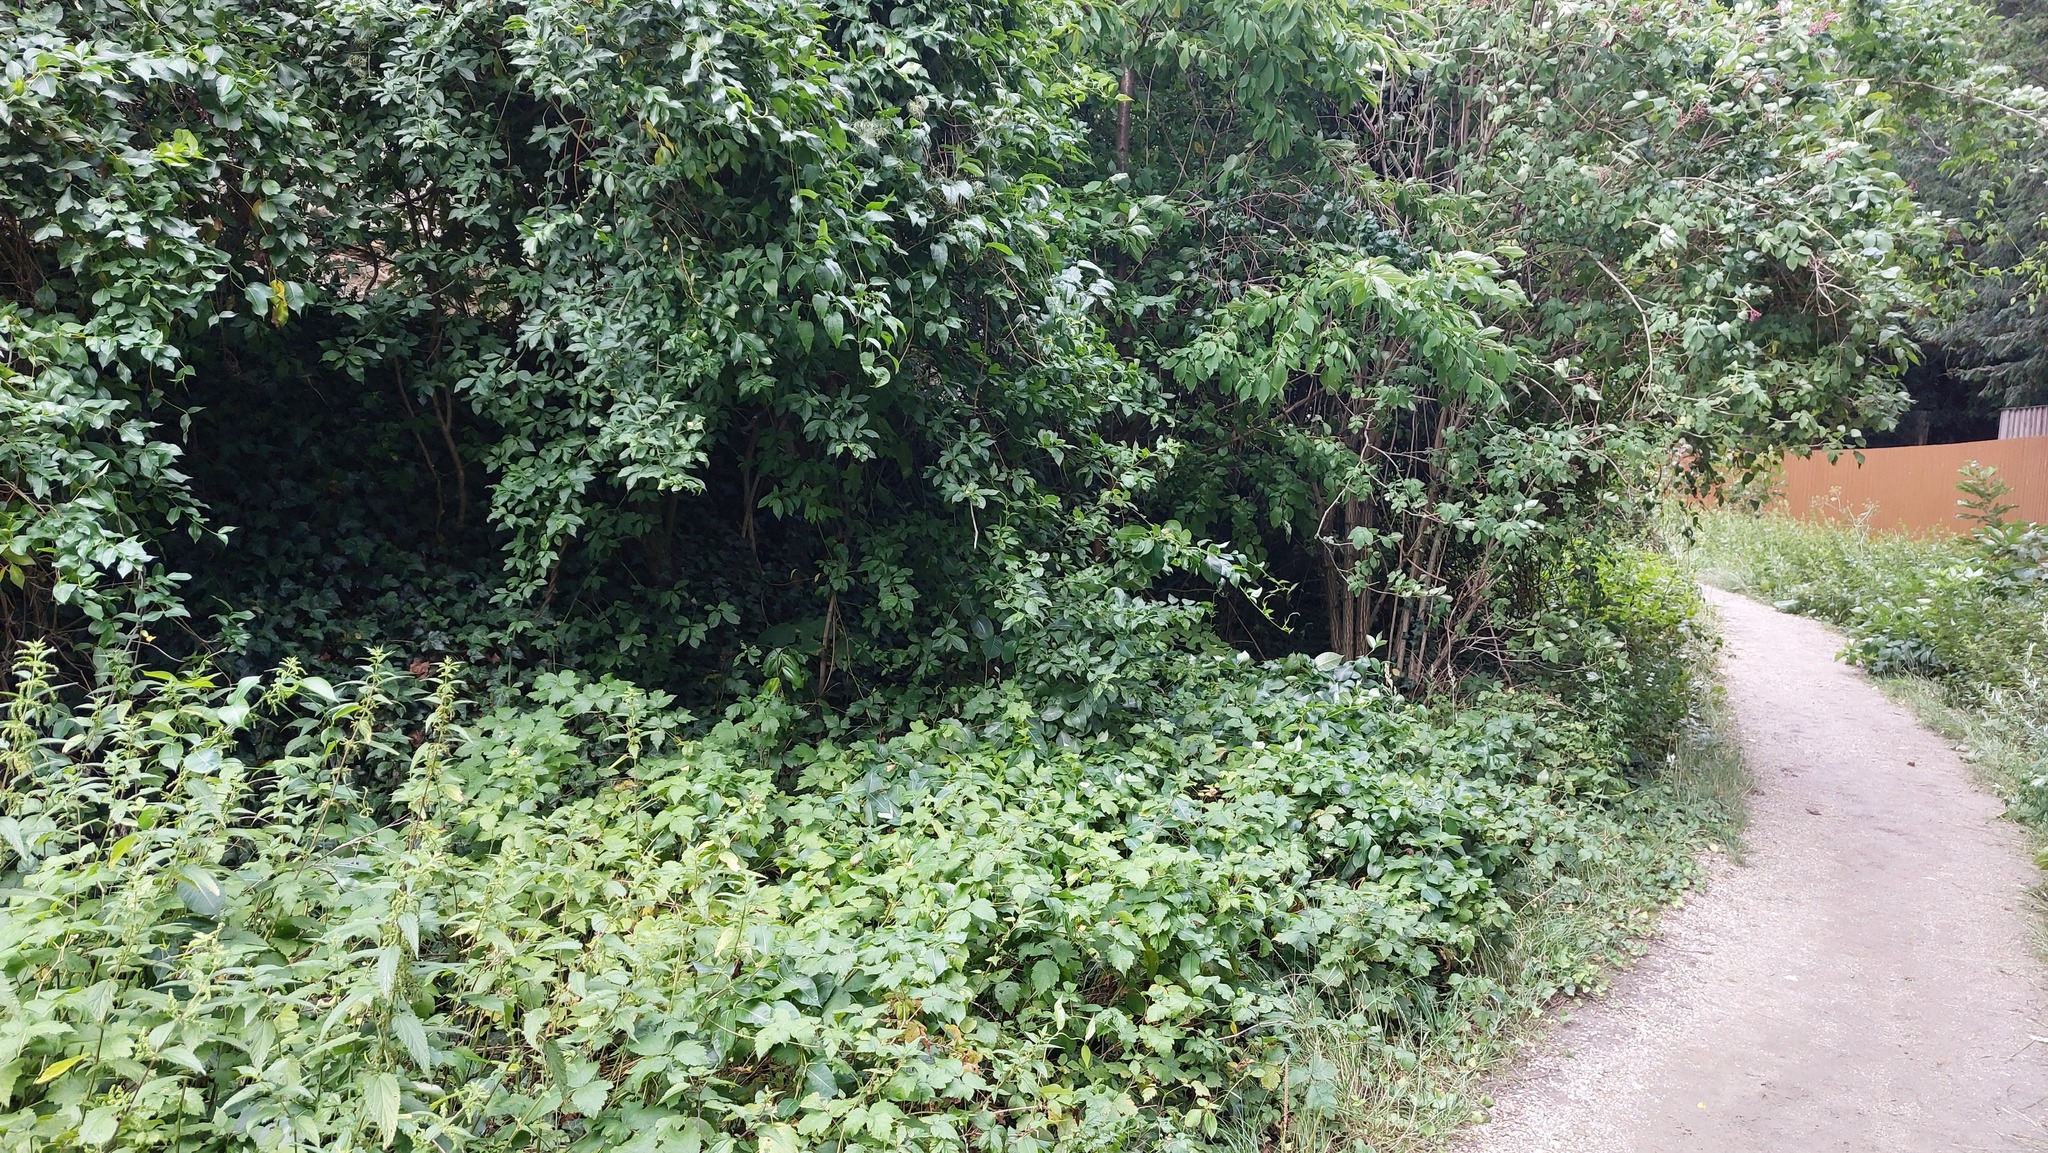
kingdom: Plantae
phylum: Tracheophyta
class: Magnoliopsida
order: Gentianales
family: Apocynaceae
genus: Periploca
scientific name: Periploca graeca
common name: Silkvine
